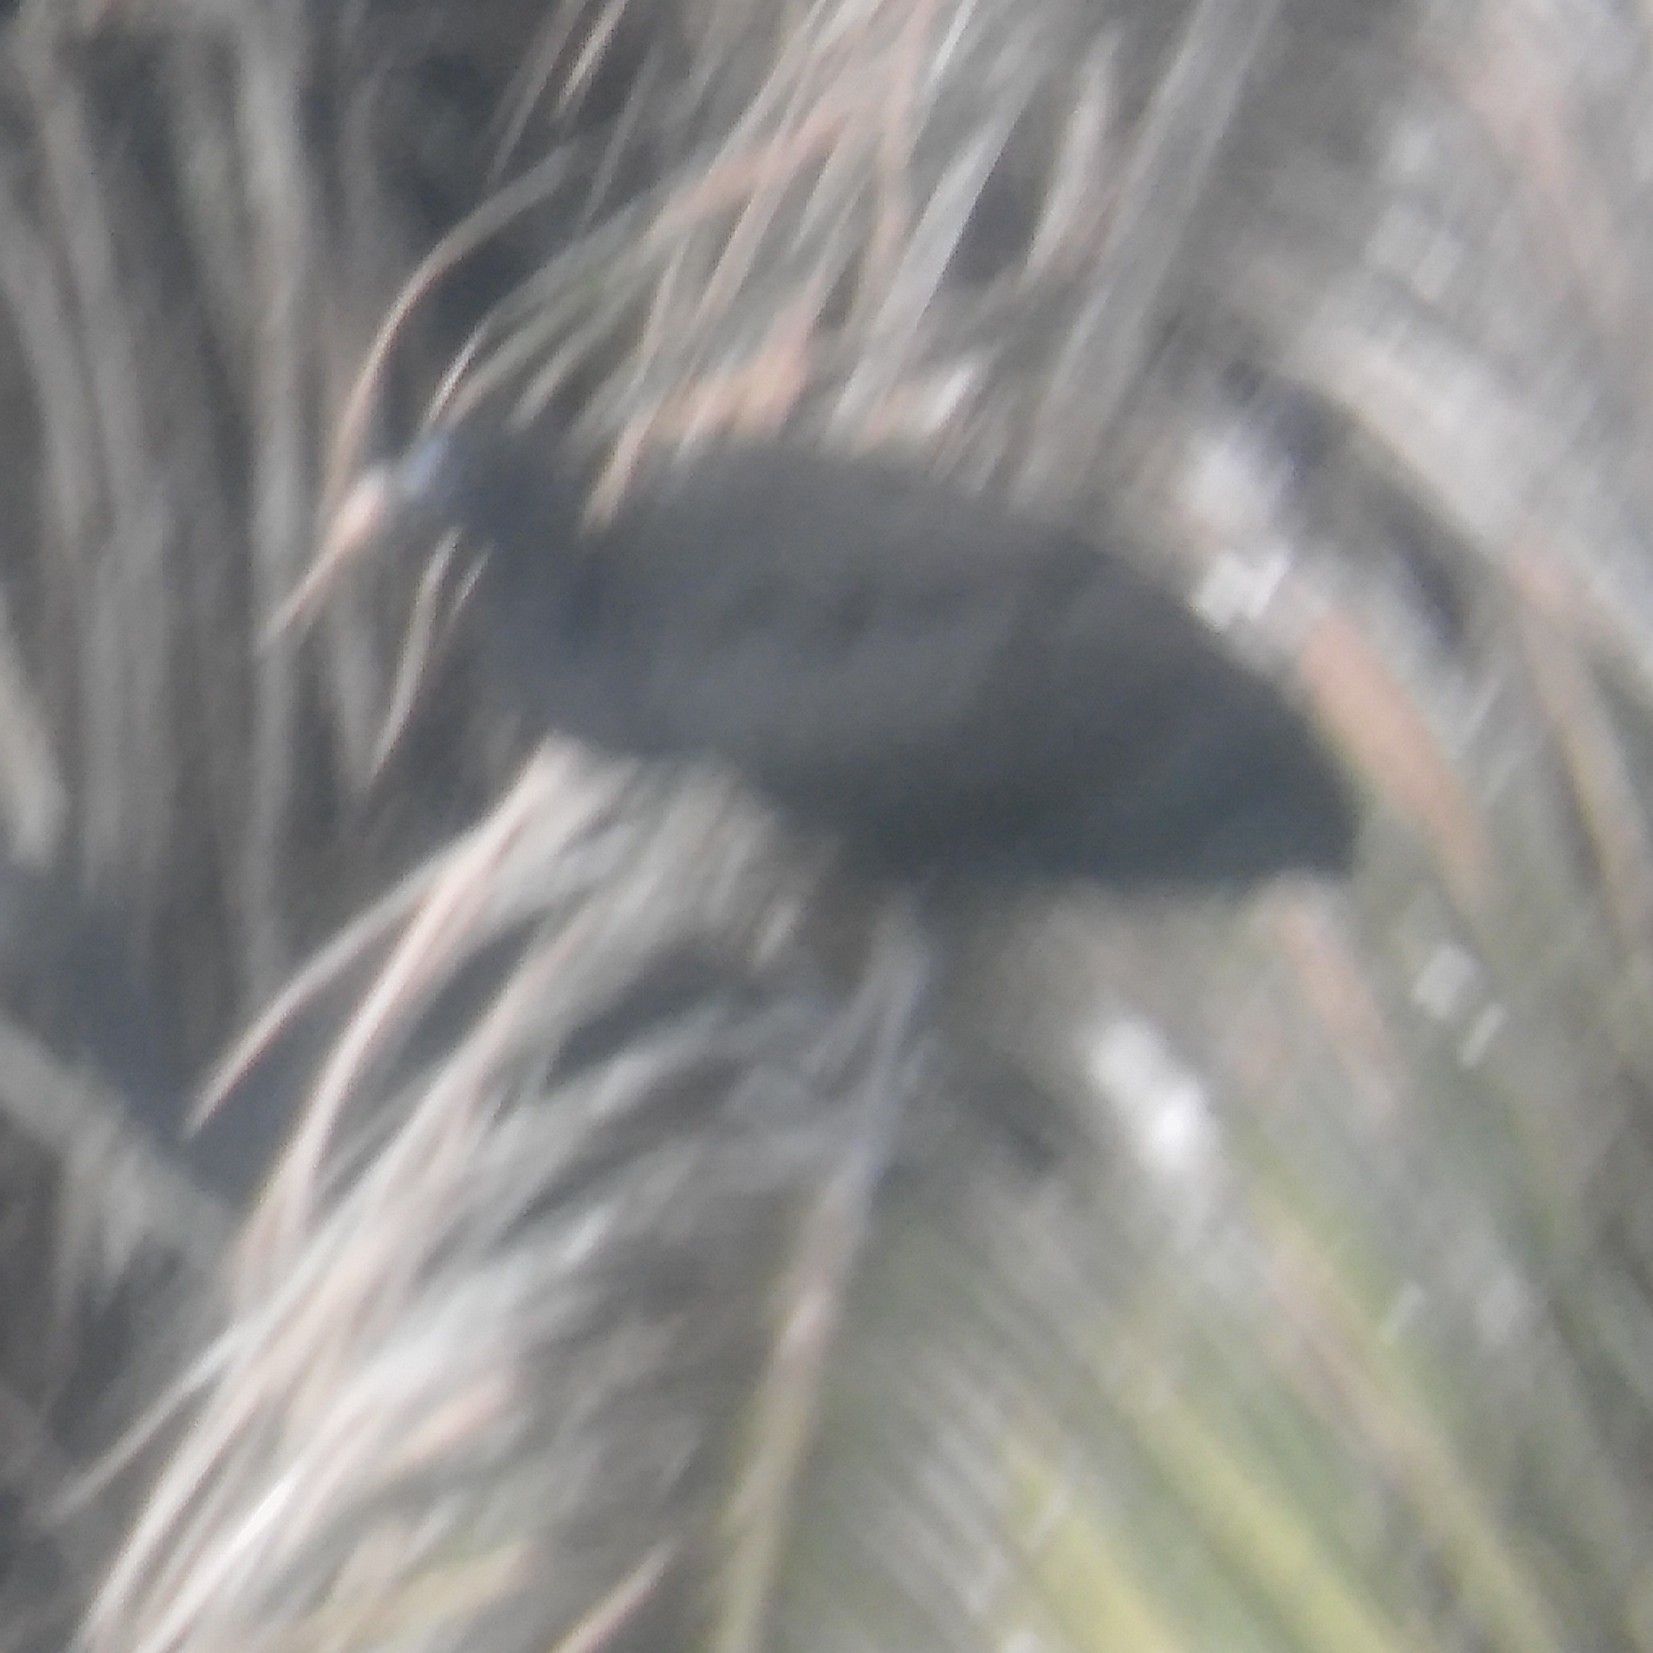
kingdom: Animalia
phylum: Chordata
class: Aves
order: Pelecaniformes
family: Threskiornithidae
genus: Phimosus
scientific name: Phimosus infuscatus
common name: Bare-faced ibis
